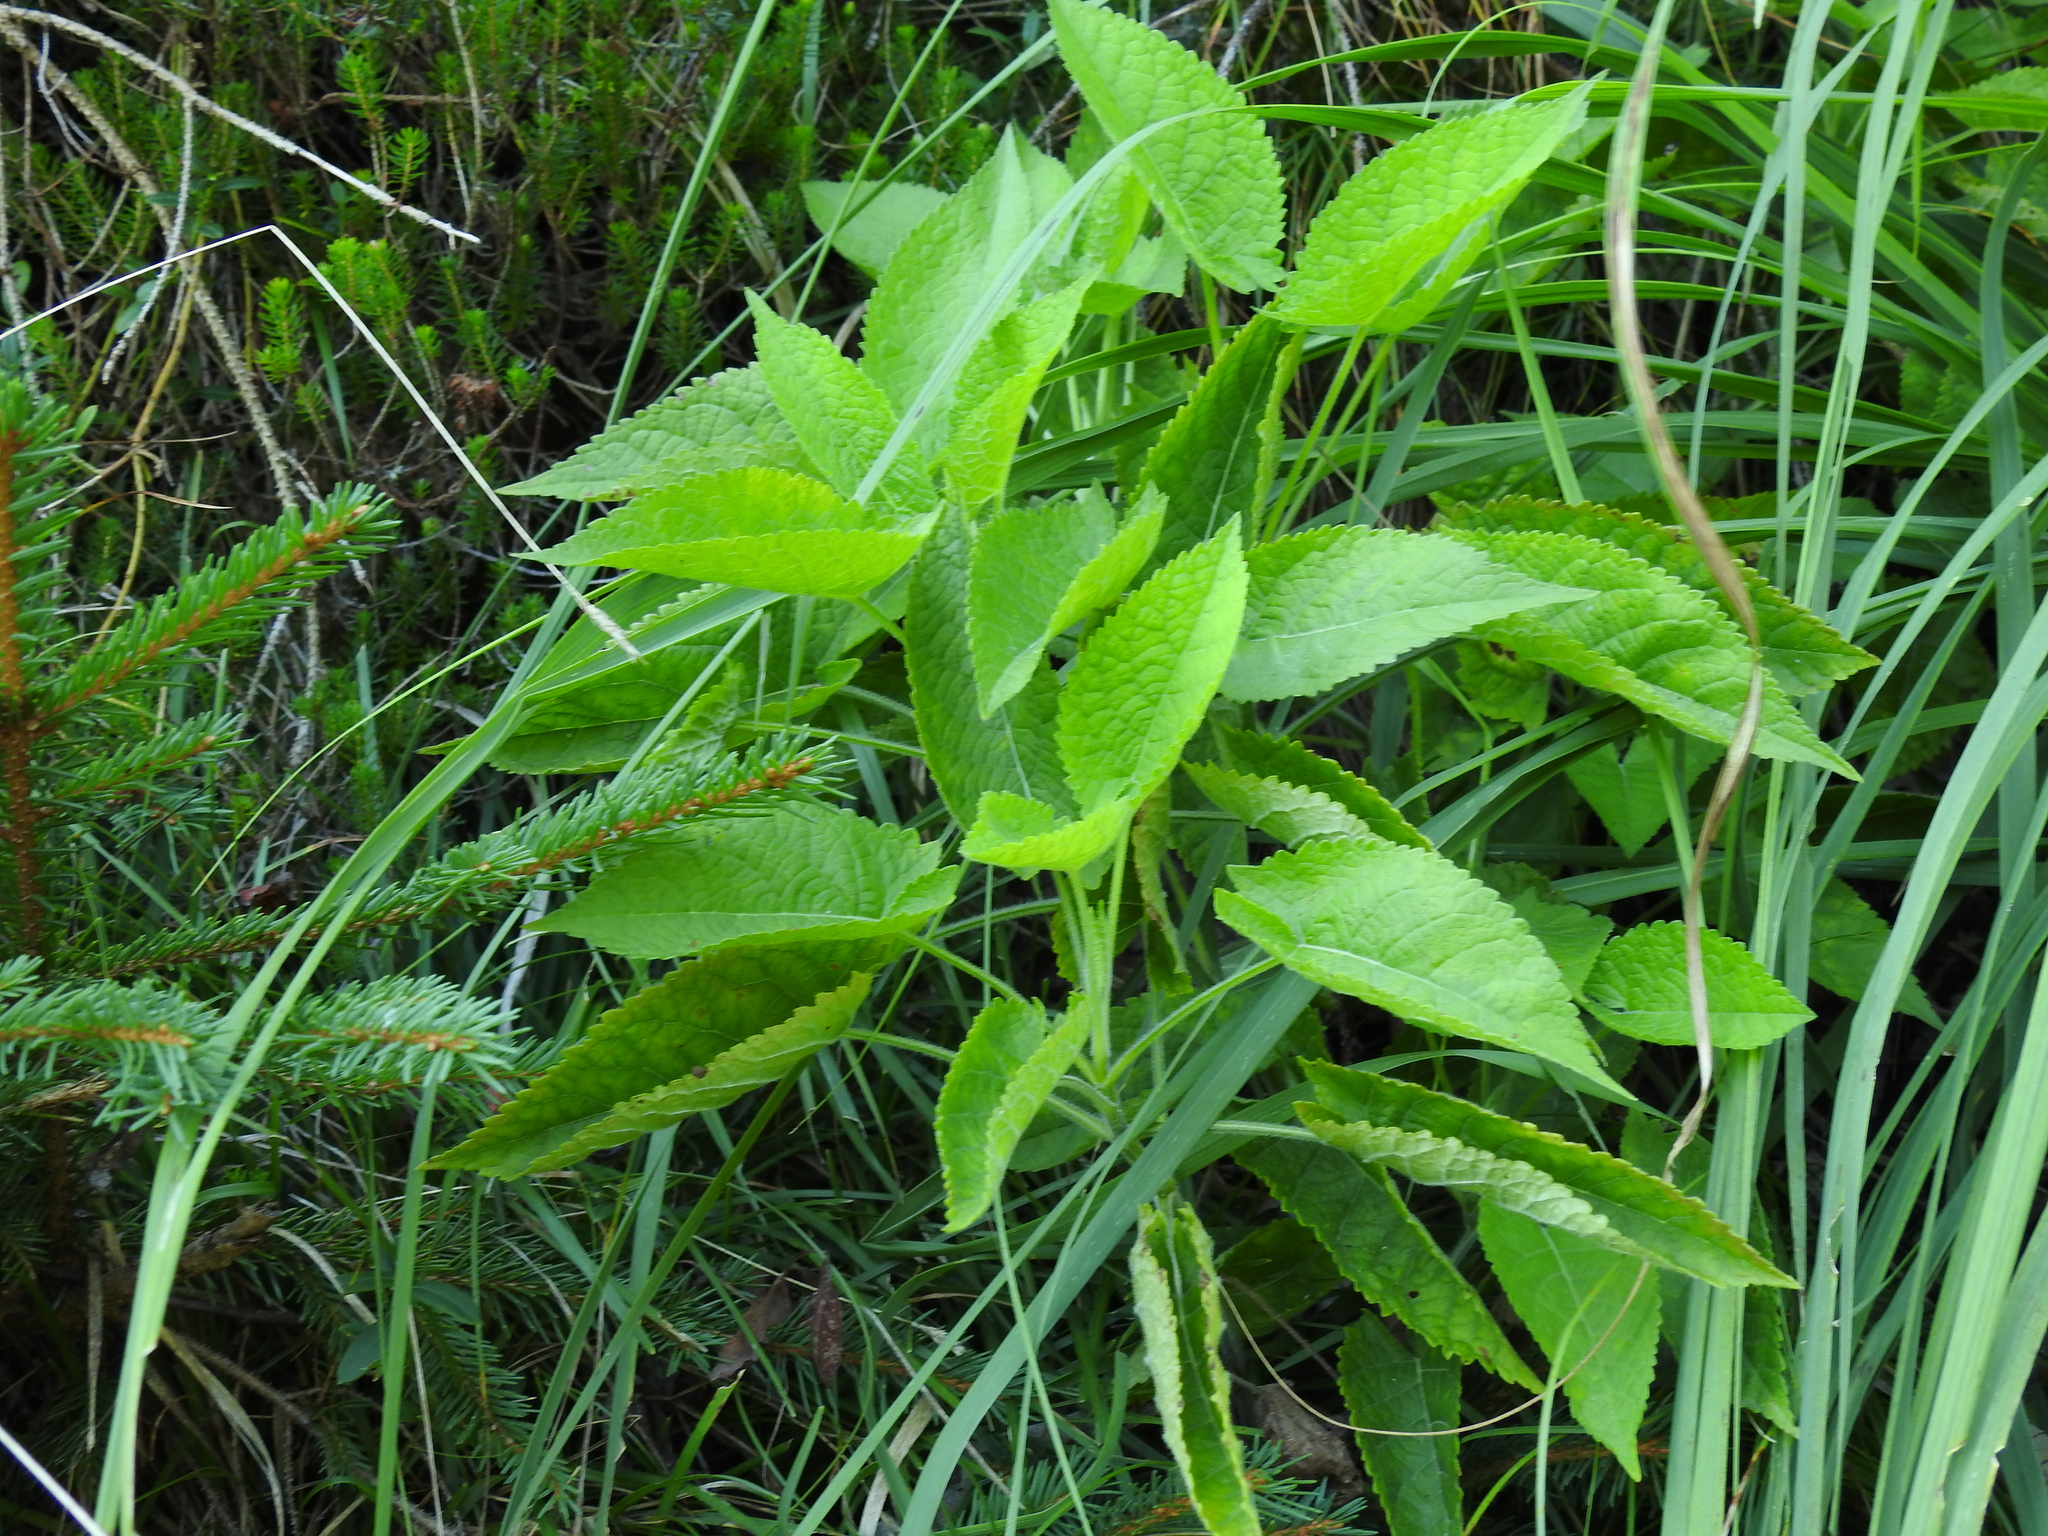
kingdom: Plantae
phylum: Tracheophyta
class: Magnoliopsida
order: Lamiales
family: Lamiaceae
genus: Salvia
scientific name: Salvia glutinosa
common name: Sticky clary
